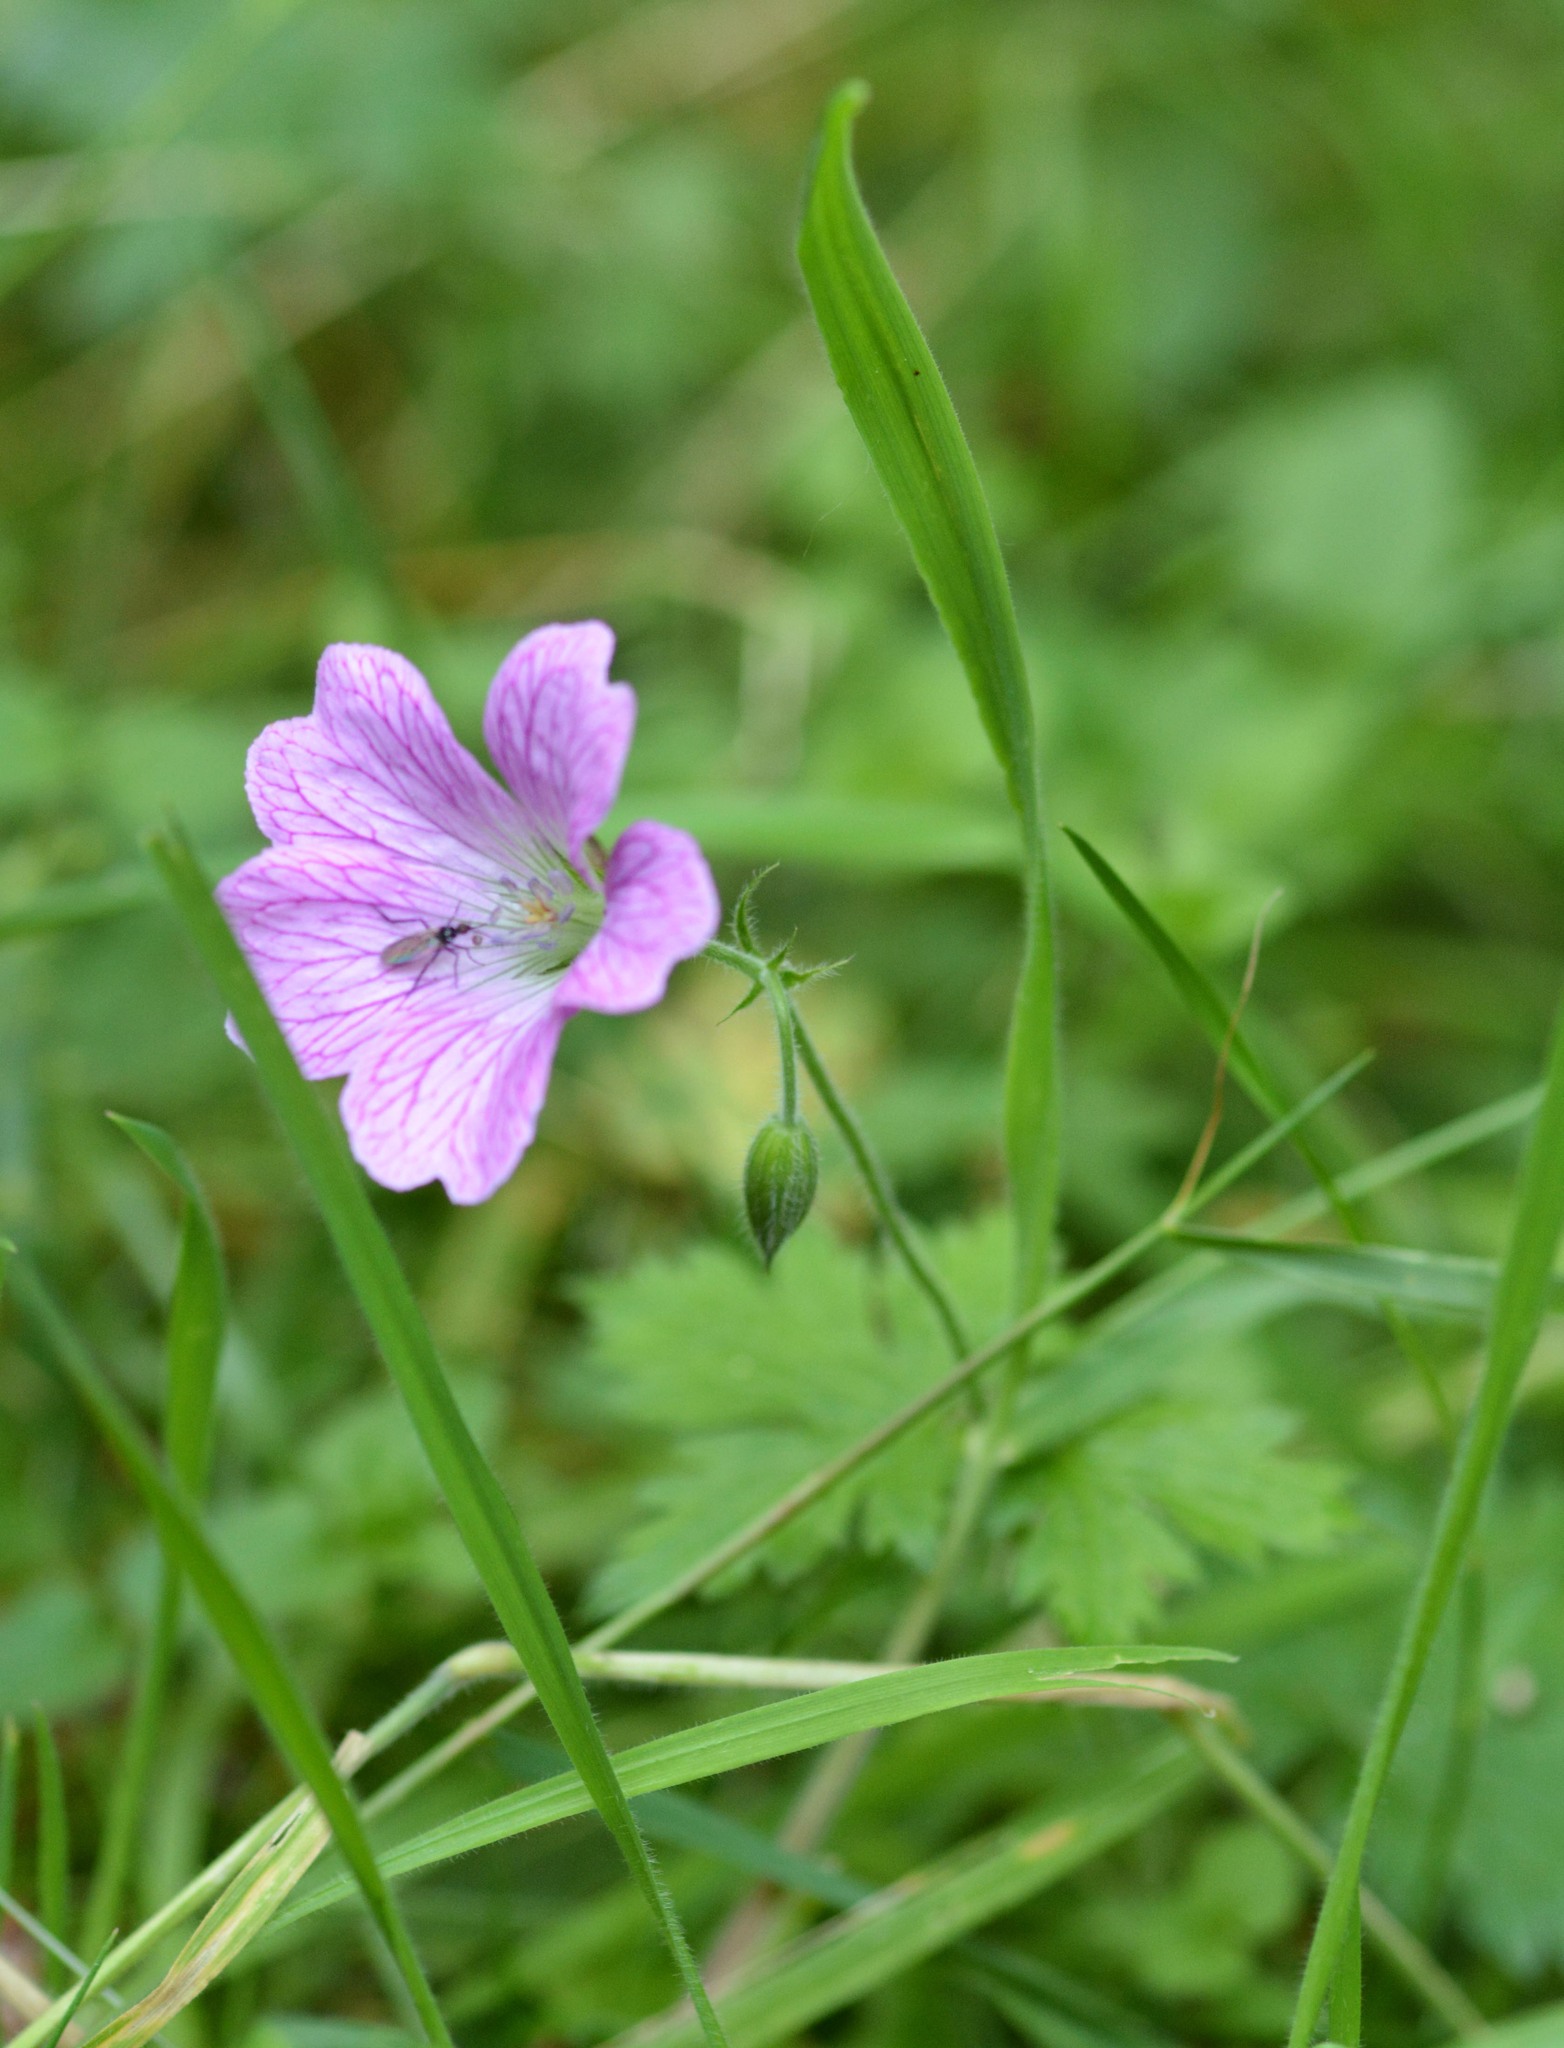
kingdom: Plantae
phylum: Tracheophyta
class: Magnoliopsida
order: Geraniales
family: Geraniaceae
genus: Geranium
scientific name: Geranium oxonianum
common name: Druce's crane's-bill
